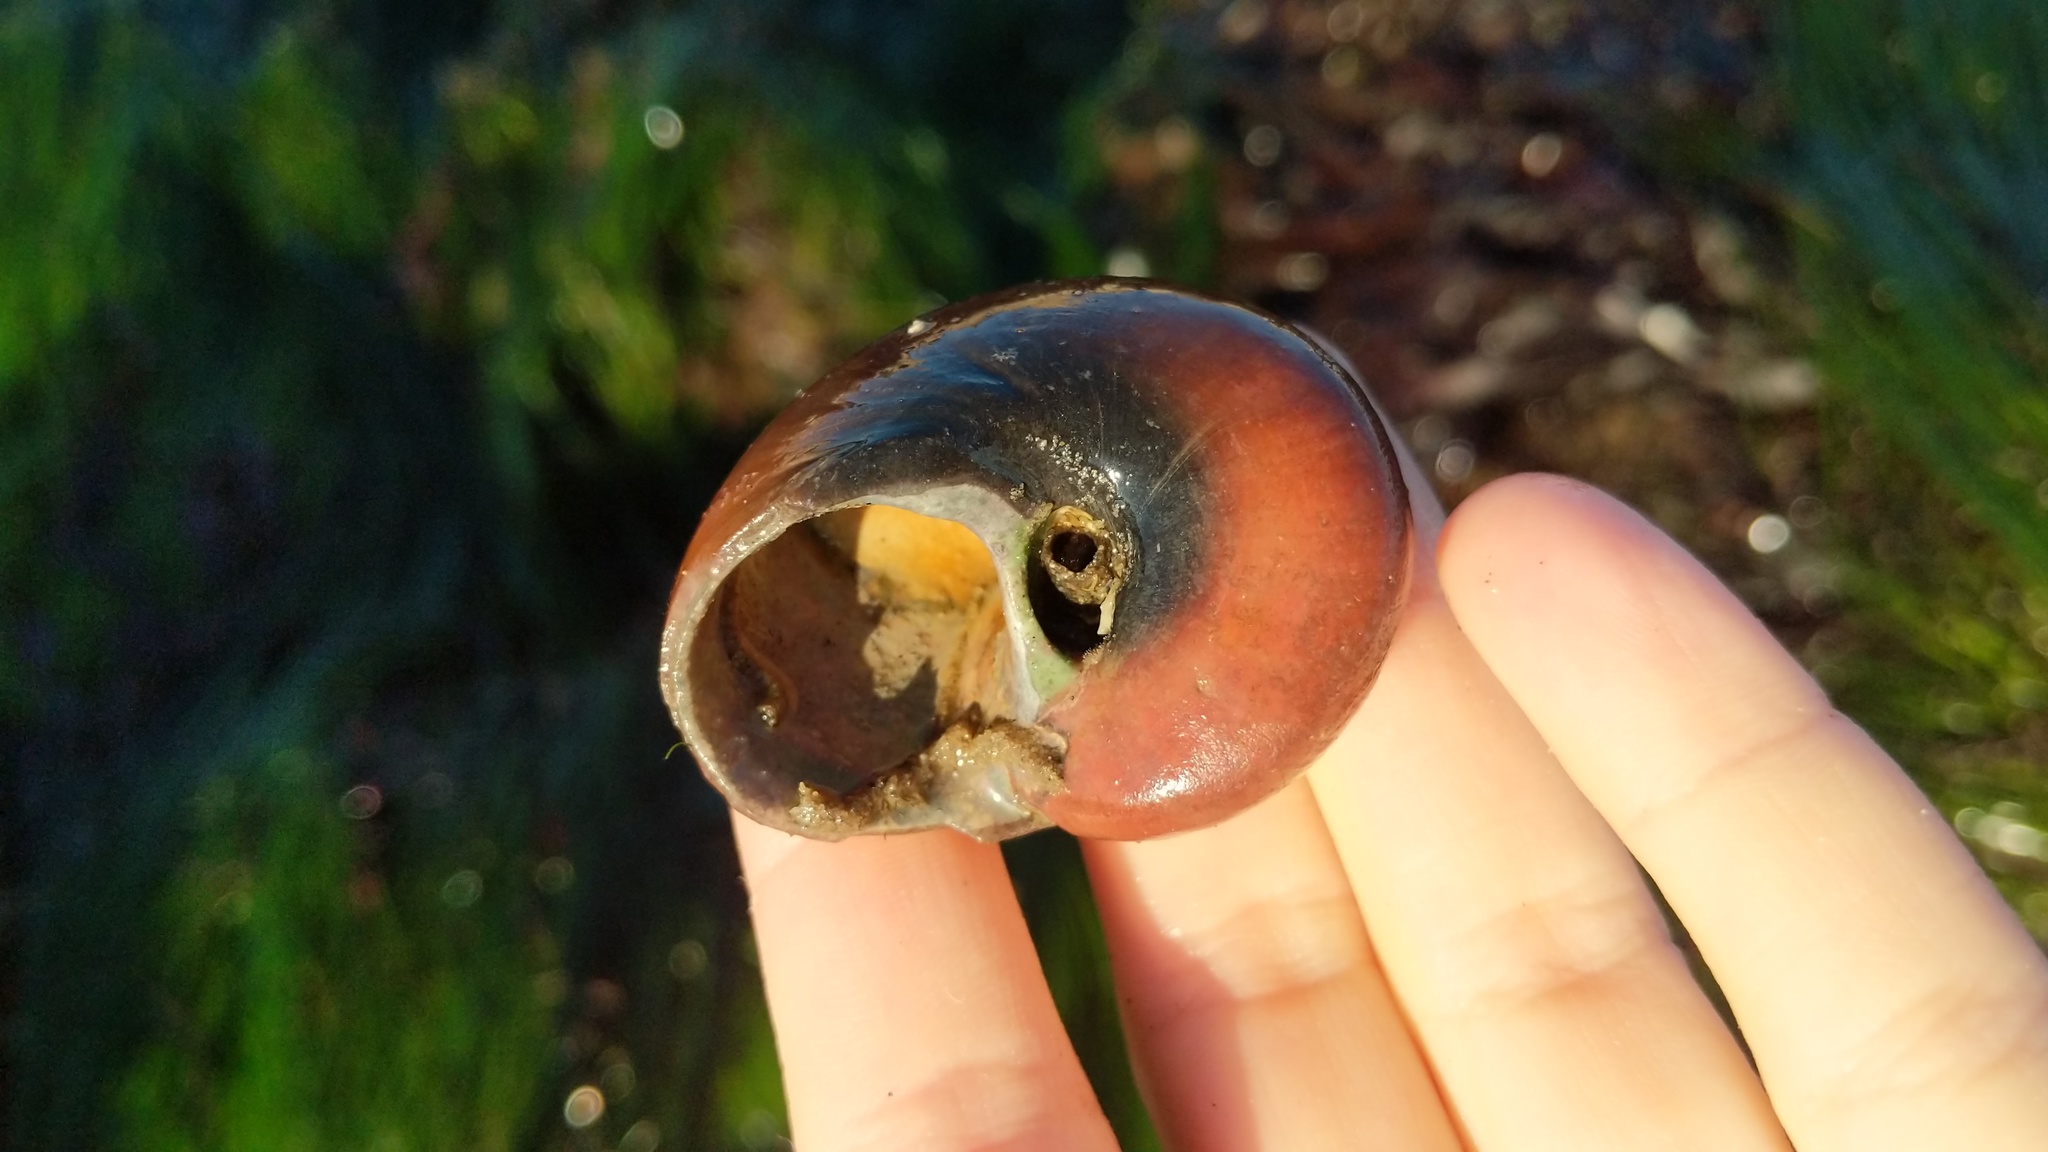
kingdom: Animalia
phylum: Mollusca
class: Gastropoda
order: Trochida
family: Tegulidae
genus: Norrisia
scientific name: Norrisia norrisii
